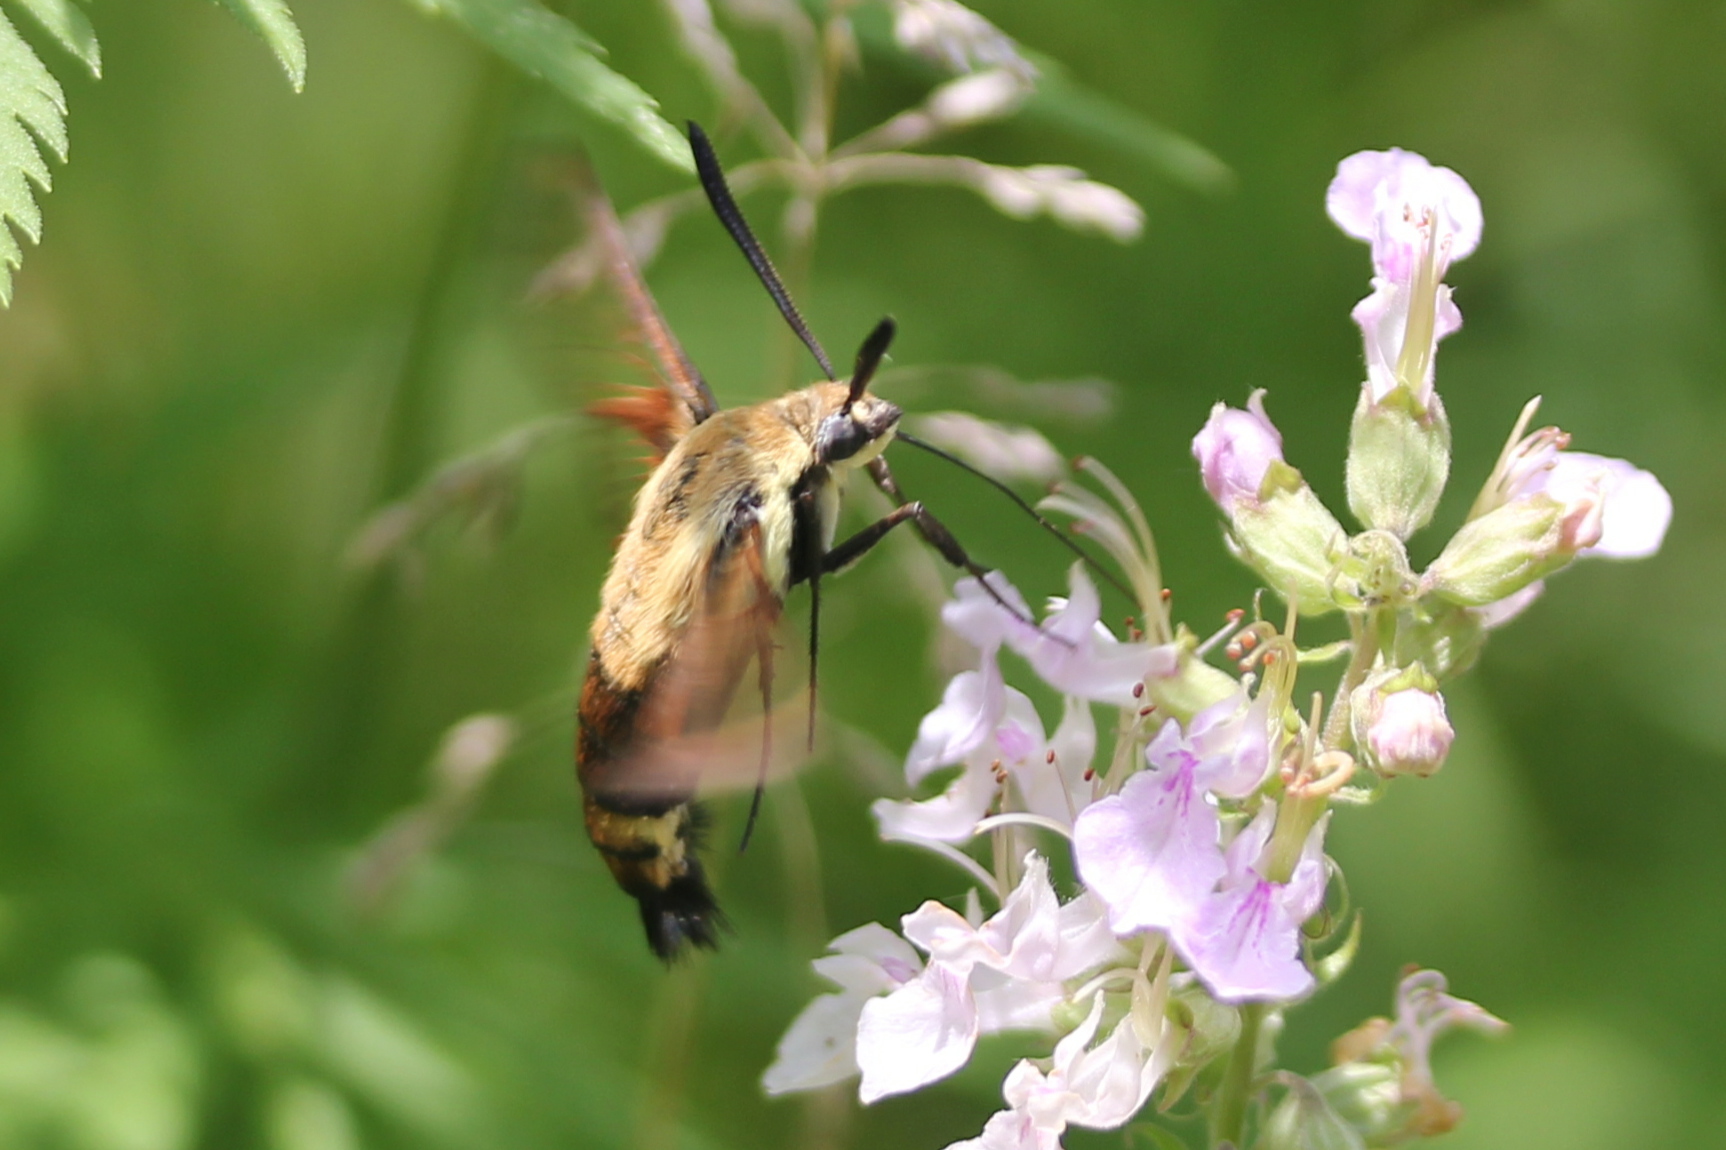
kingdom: Animalia
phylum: Arthropoda
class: Insecta
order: Lepidoptera
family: Sphingidae
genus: Hemaris
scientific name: Hemaris diffinis
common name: Bumblebee moth
